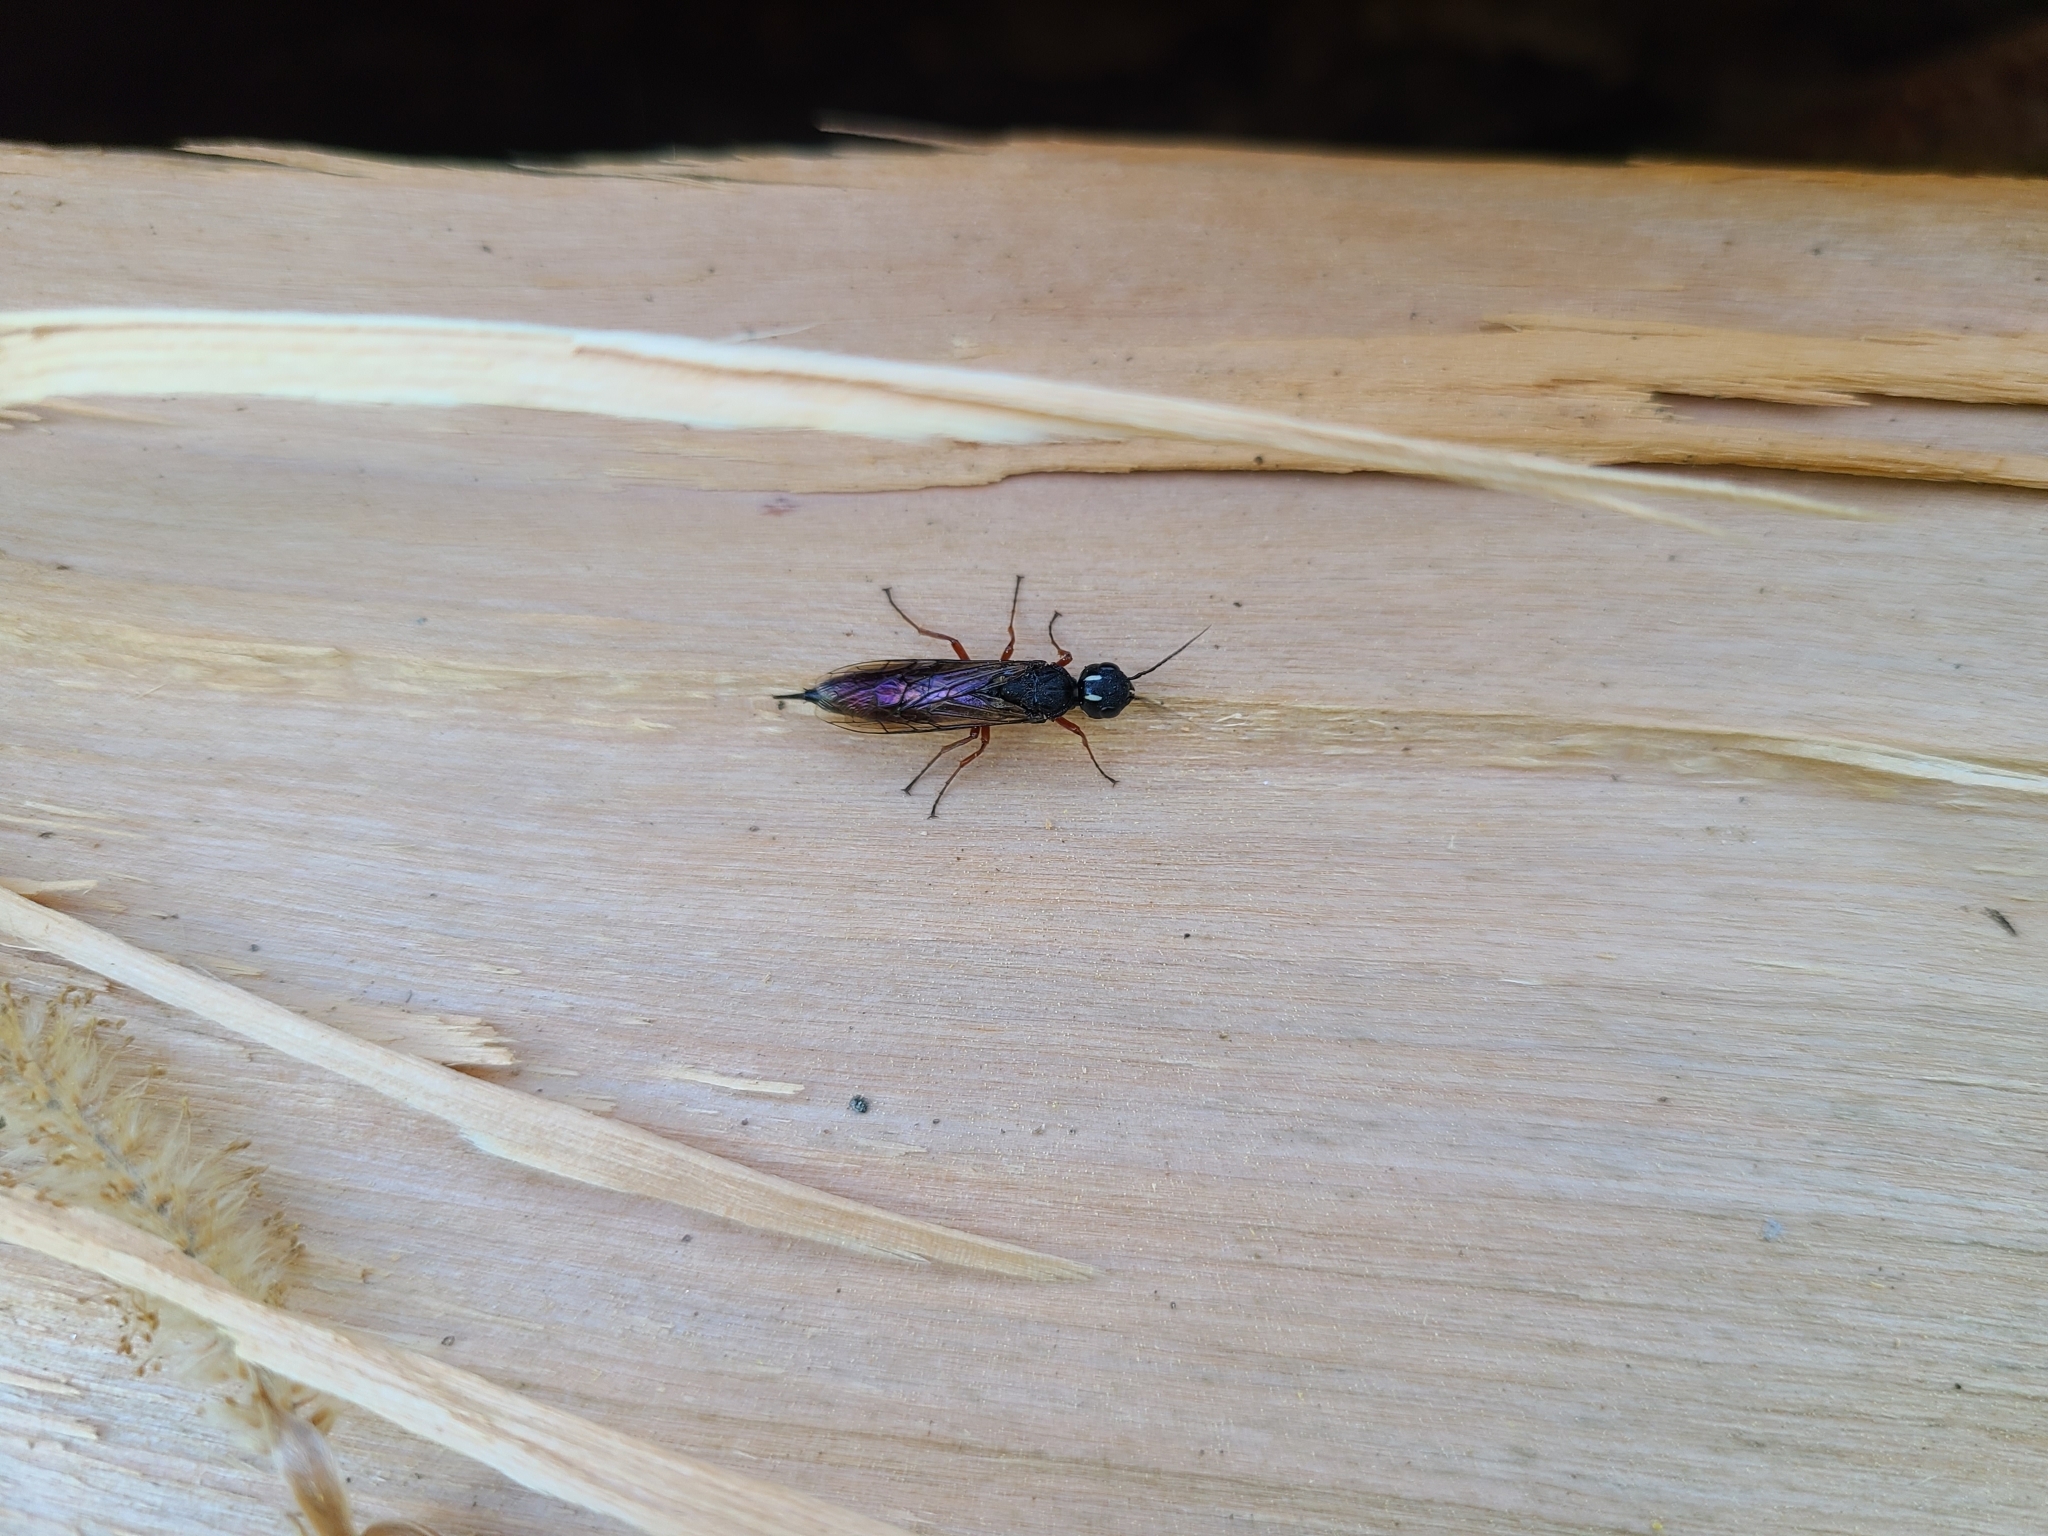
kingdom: Animalia
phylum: Arthropoda
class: Insecta
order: Hymenoptera
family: Xiphydriidae
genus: Xiphydria
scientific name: Xiphydria camelus
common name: Alder wood-wasp
